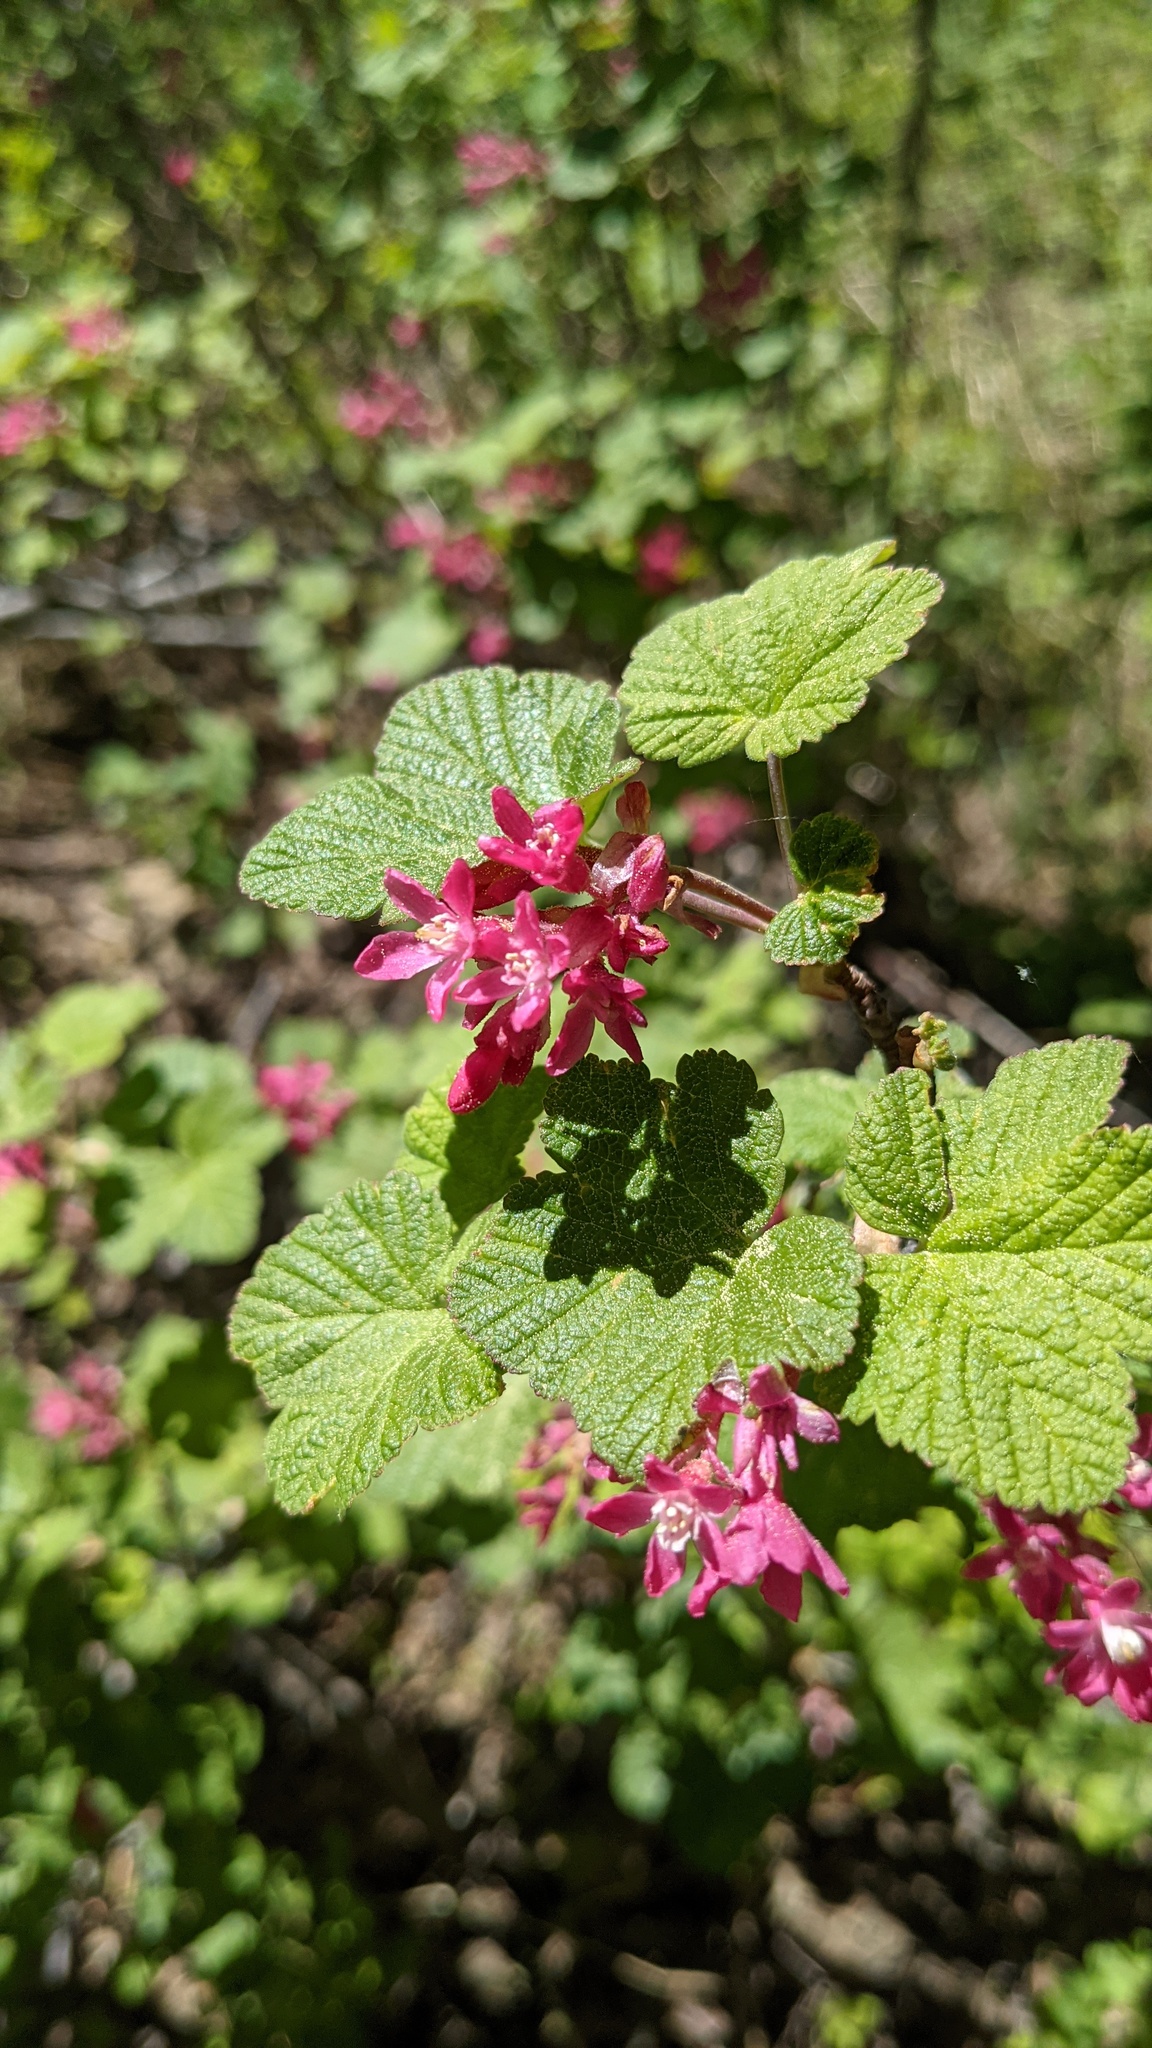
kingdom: Plantae
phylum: Tracheophyta
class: Magnoliopsida
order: Saxifragales
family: Grossulariaceae
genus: Ribes
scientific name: Ribes sanguineum
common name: Flowering currant
